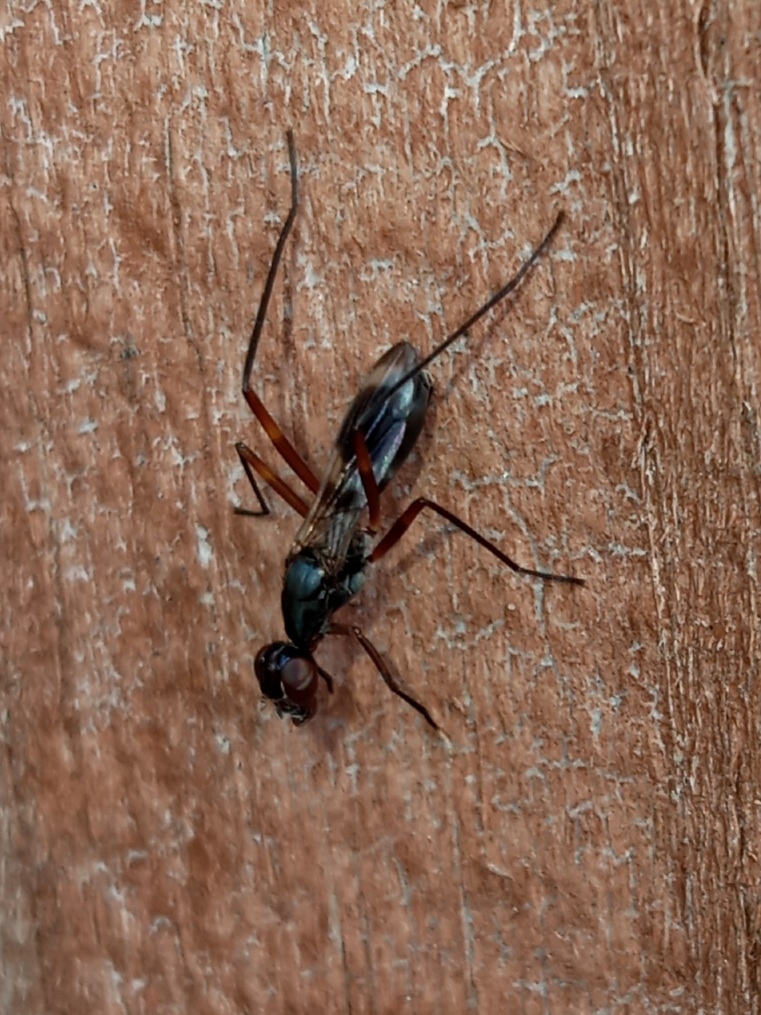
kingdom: Animalia
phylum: Arthropoda
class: Insecta
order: Diptera
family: Micropezidae
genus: Taeniaptera
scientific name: Taeniaptera trivittata
